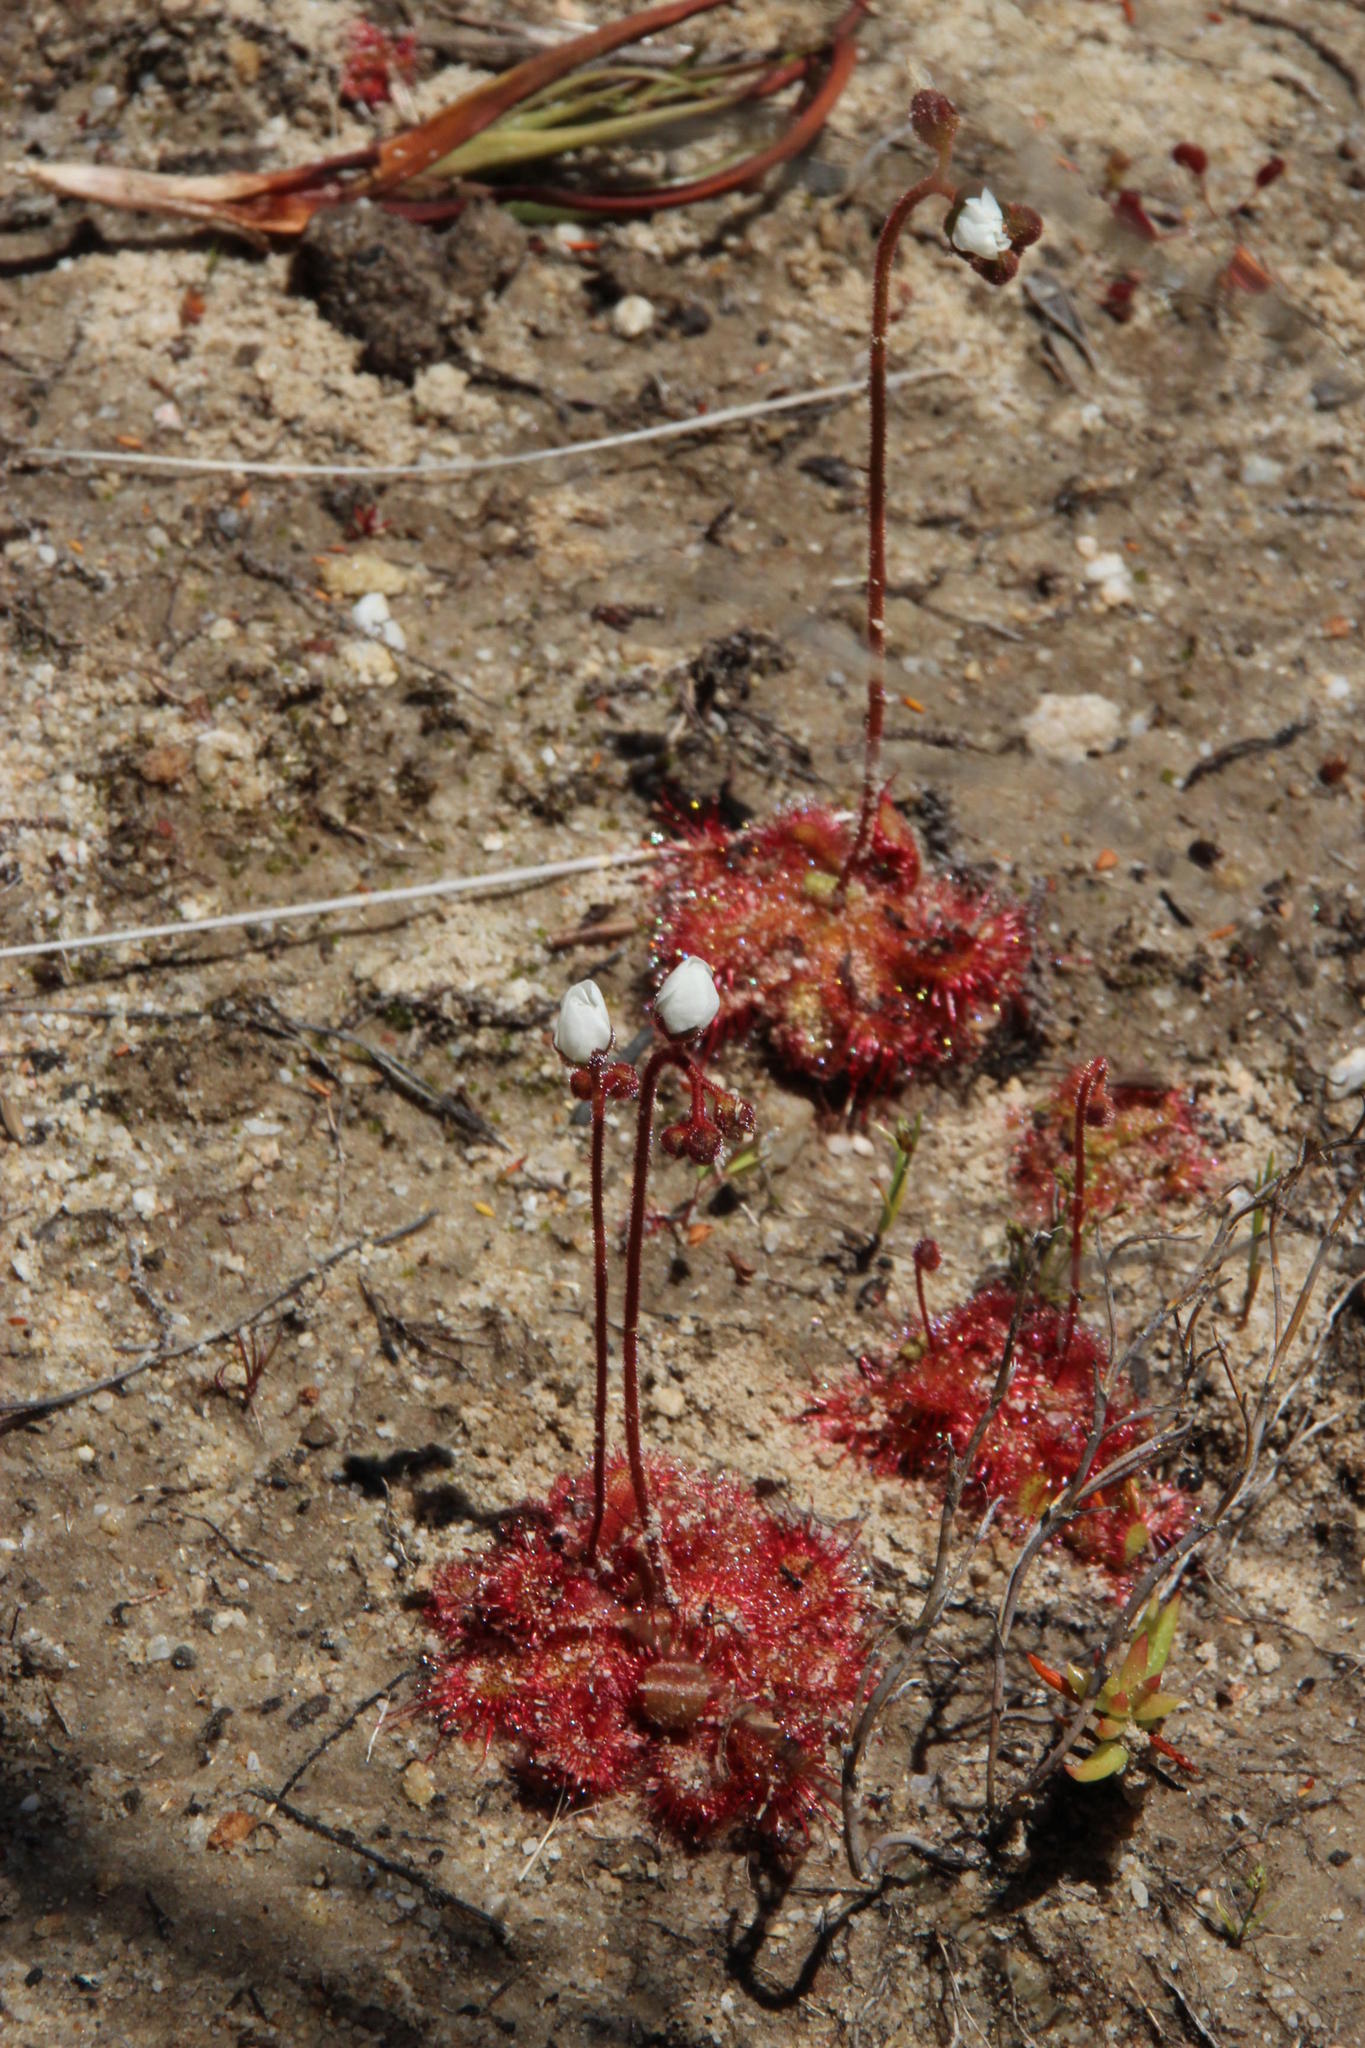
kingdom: Plantae
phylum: Tracheophyta
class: Magnoliopsida
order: Caryophyllales
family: Droseraceae
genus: Drosera
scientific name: Drosera trinervia
